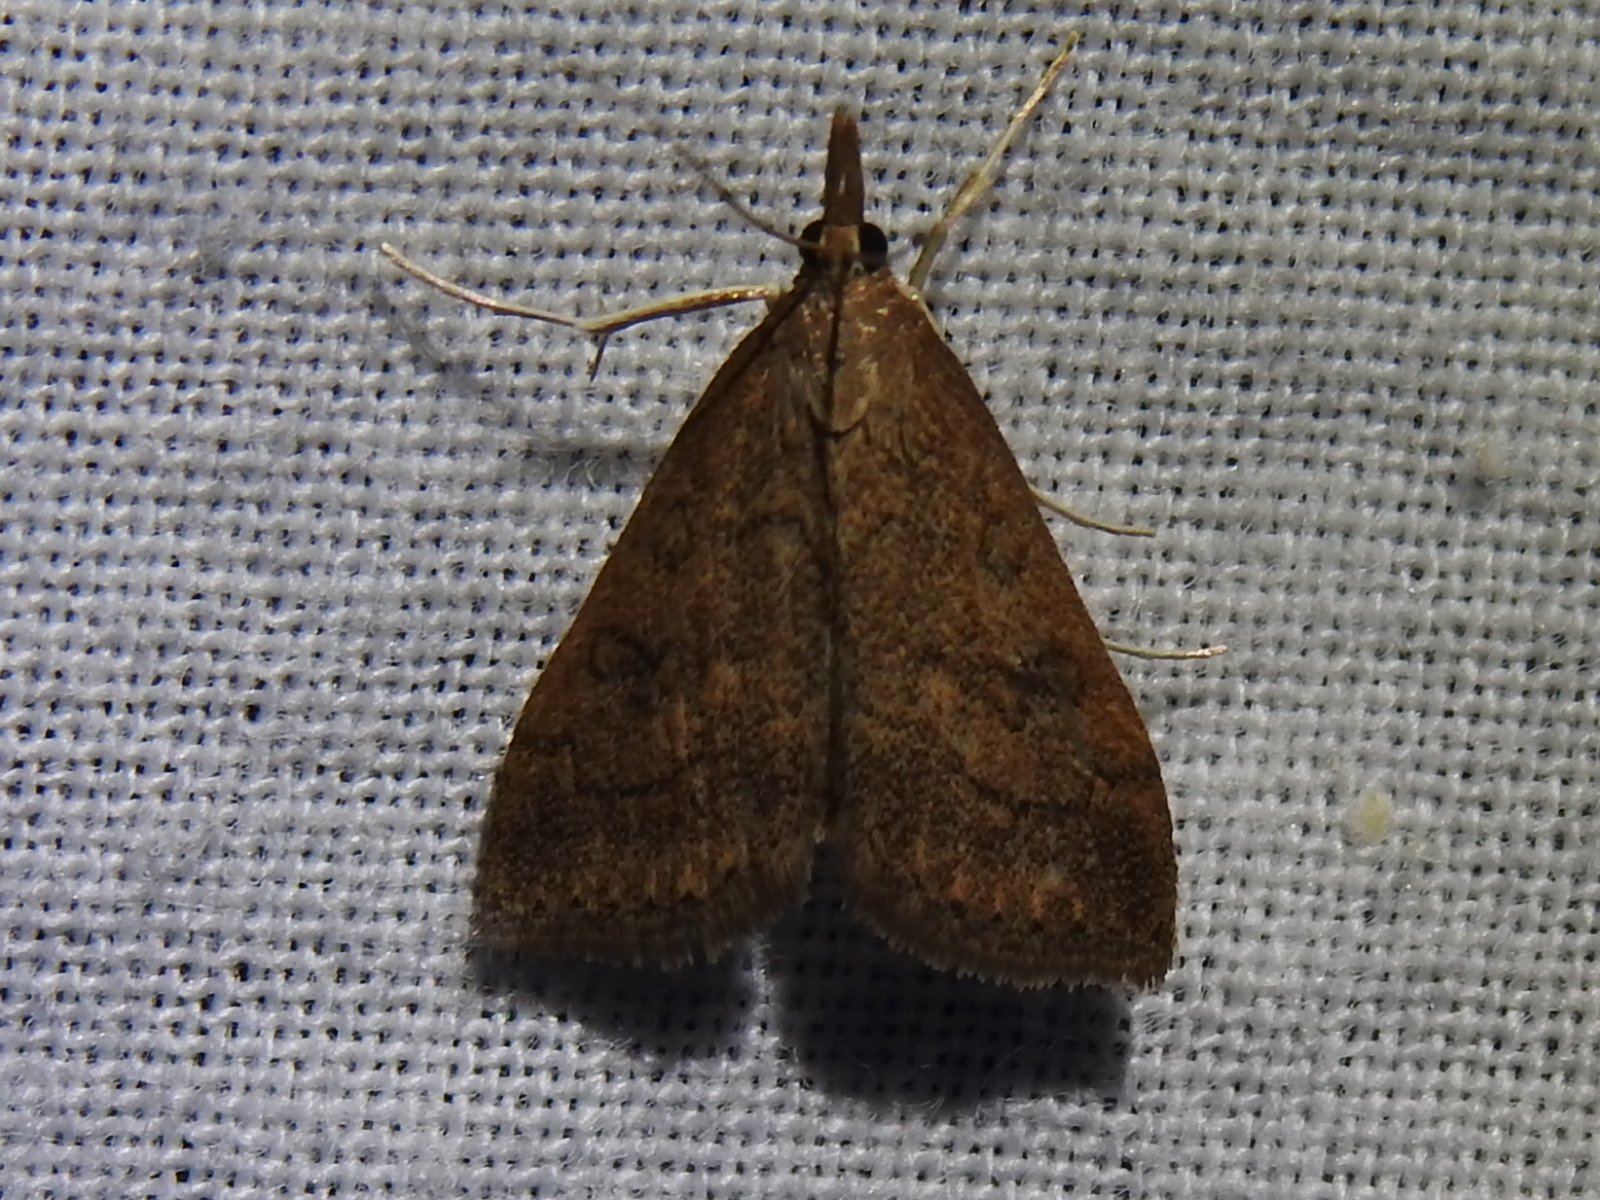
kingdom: Animalia
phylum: Arthropoda
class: Insecta
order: Lepidoptera
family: Crambidae
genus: Udea
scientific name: Udea rubigalis
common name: Celery leaftier moth
